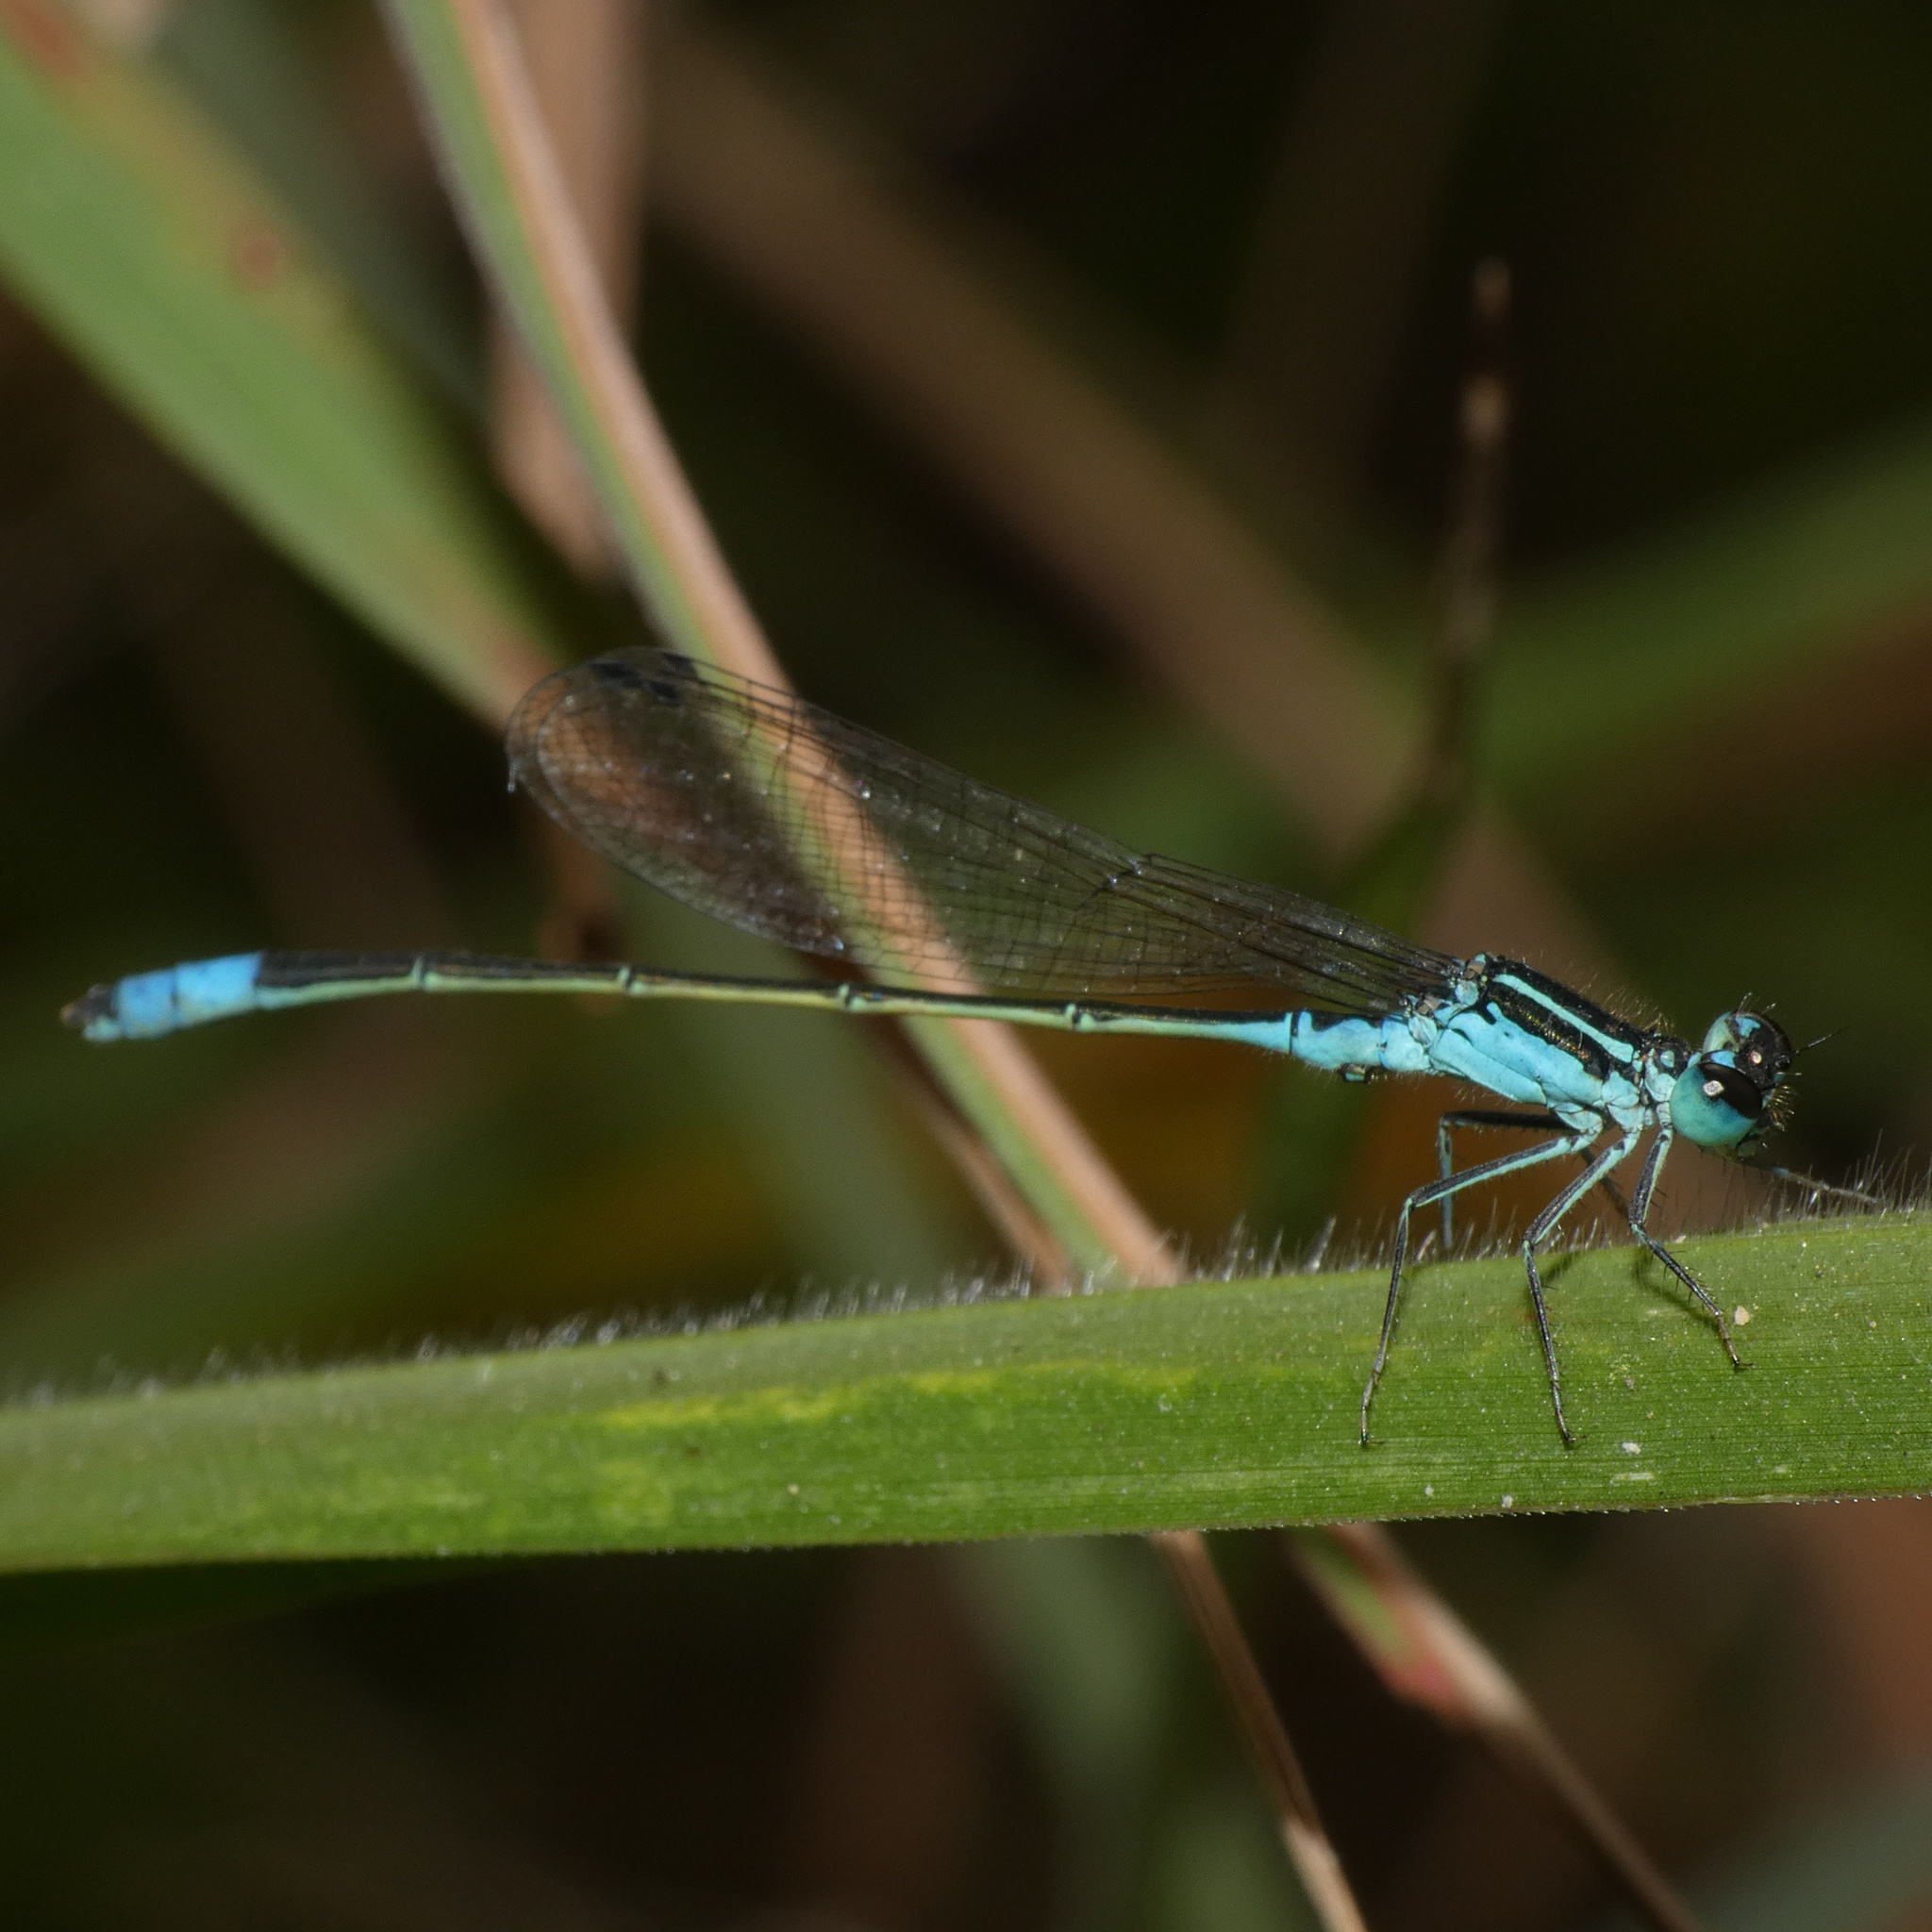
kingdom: Animalia
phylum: Arthropoda
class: Insecta
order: Odonata
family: Coenagrionidae
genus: Proischnura
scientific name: Proischnura subfurcata
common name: Fork-tailed bluet
